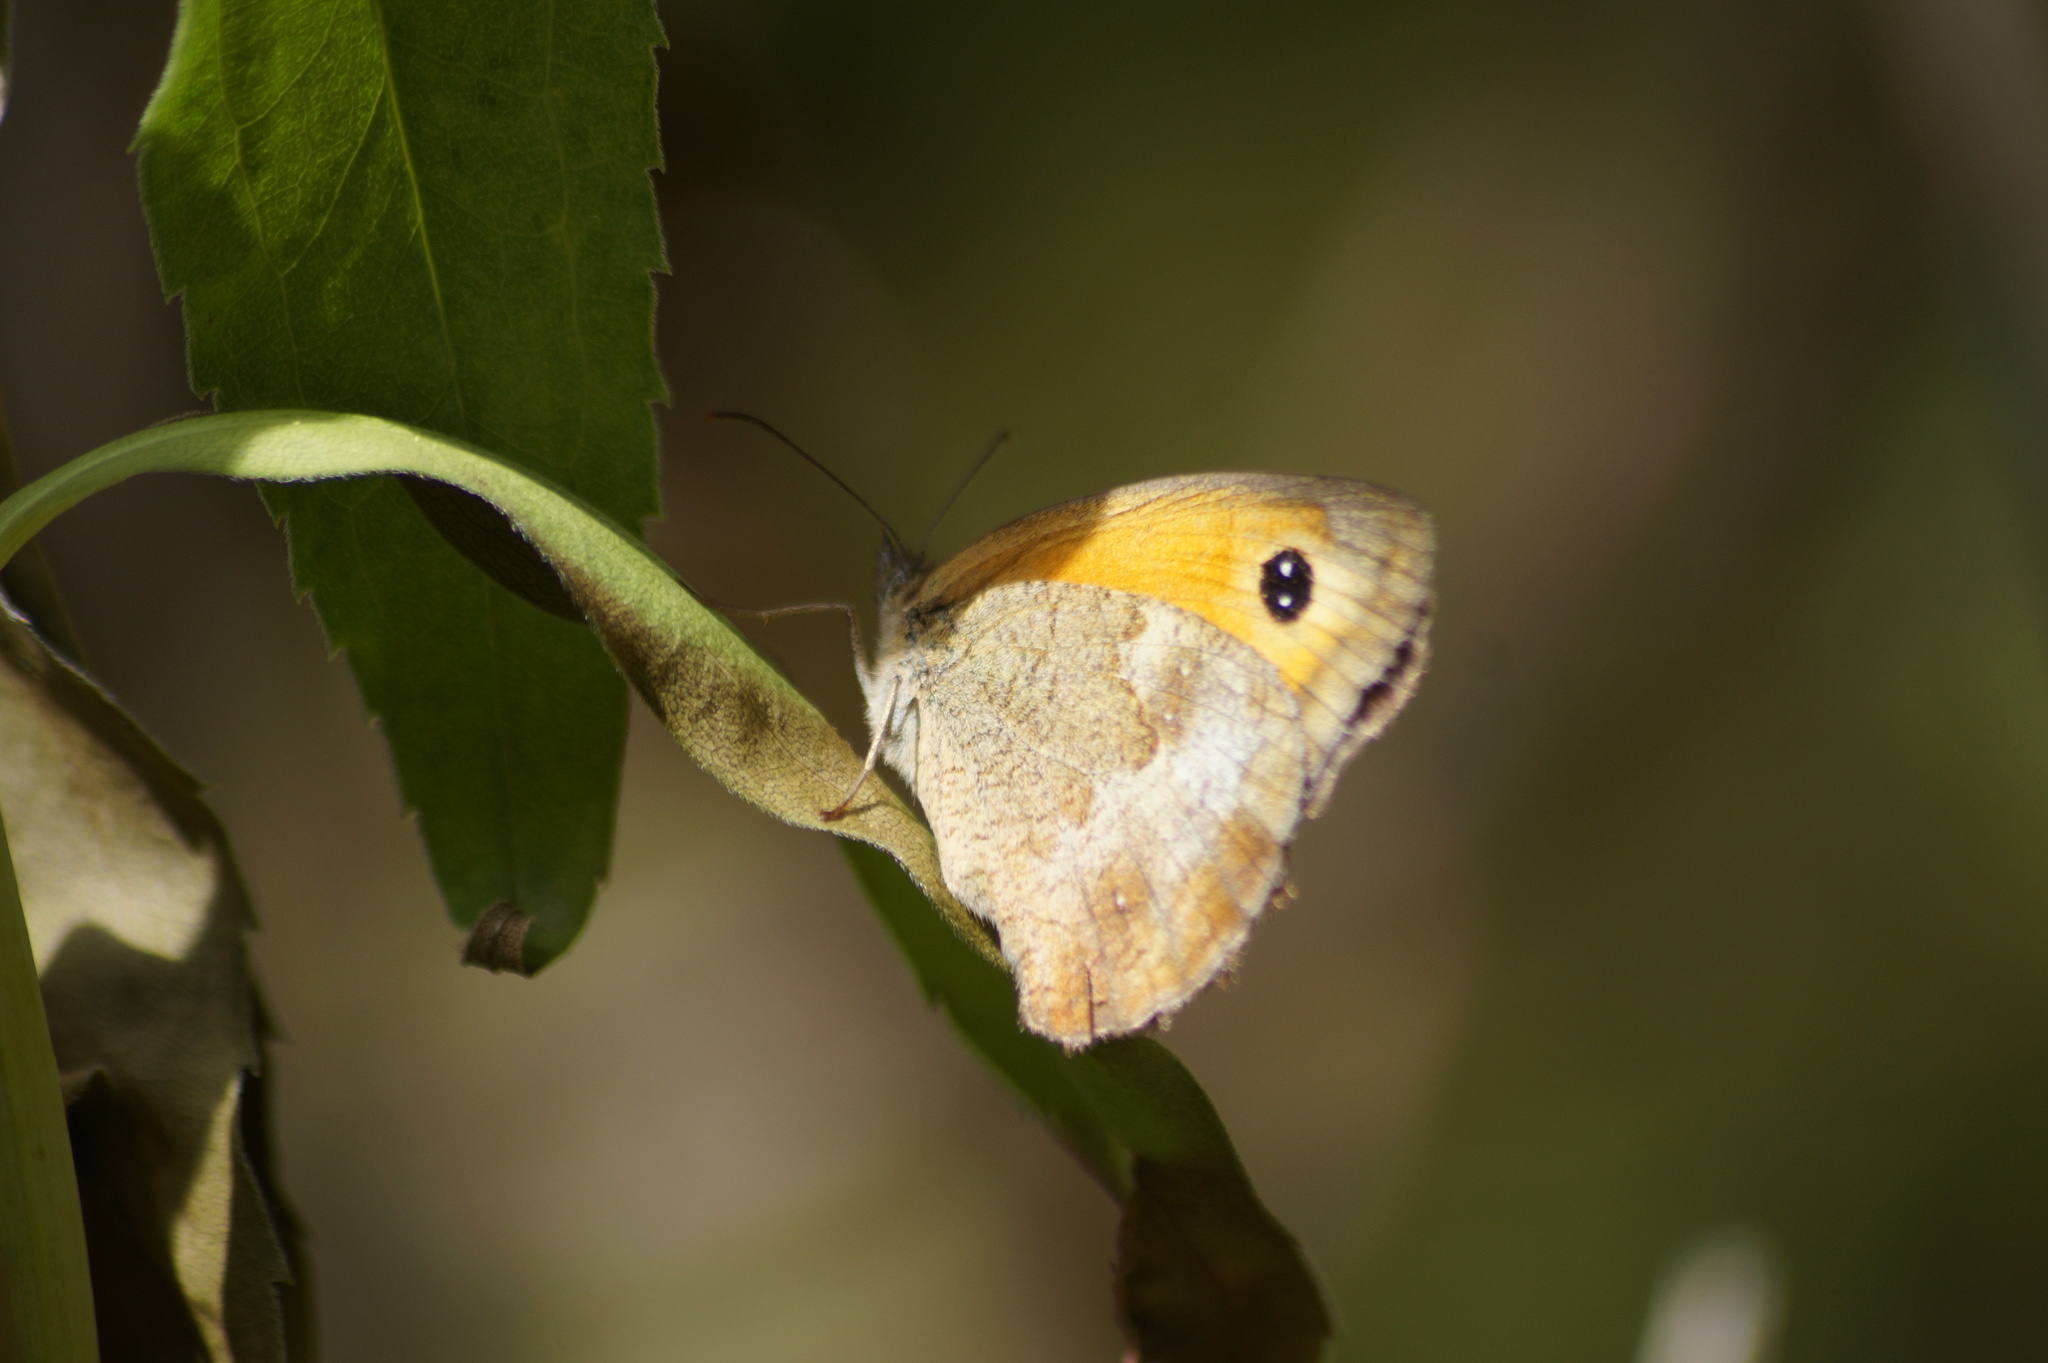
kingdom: Animalia
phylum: Arthropoda
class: Insecta
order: Lepidoptera
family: Nymphalidae
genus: Pyronia
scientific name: Pyronia tithonus
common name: Gatekeeper
